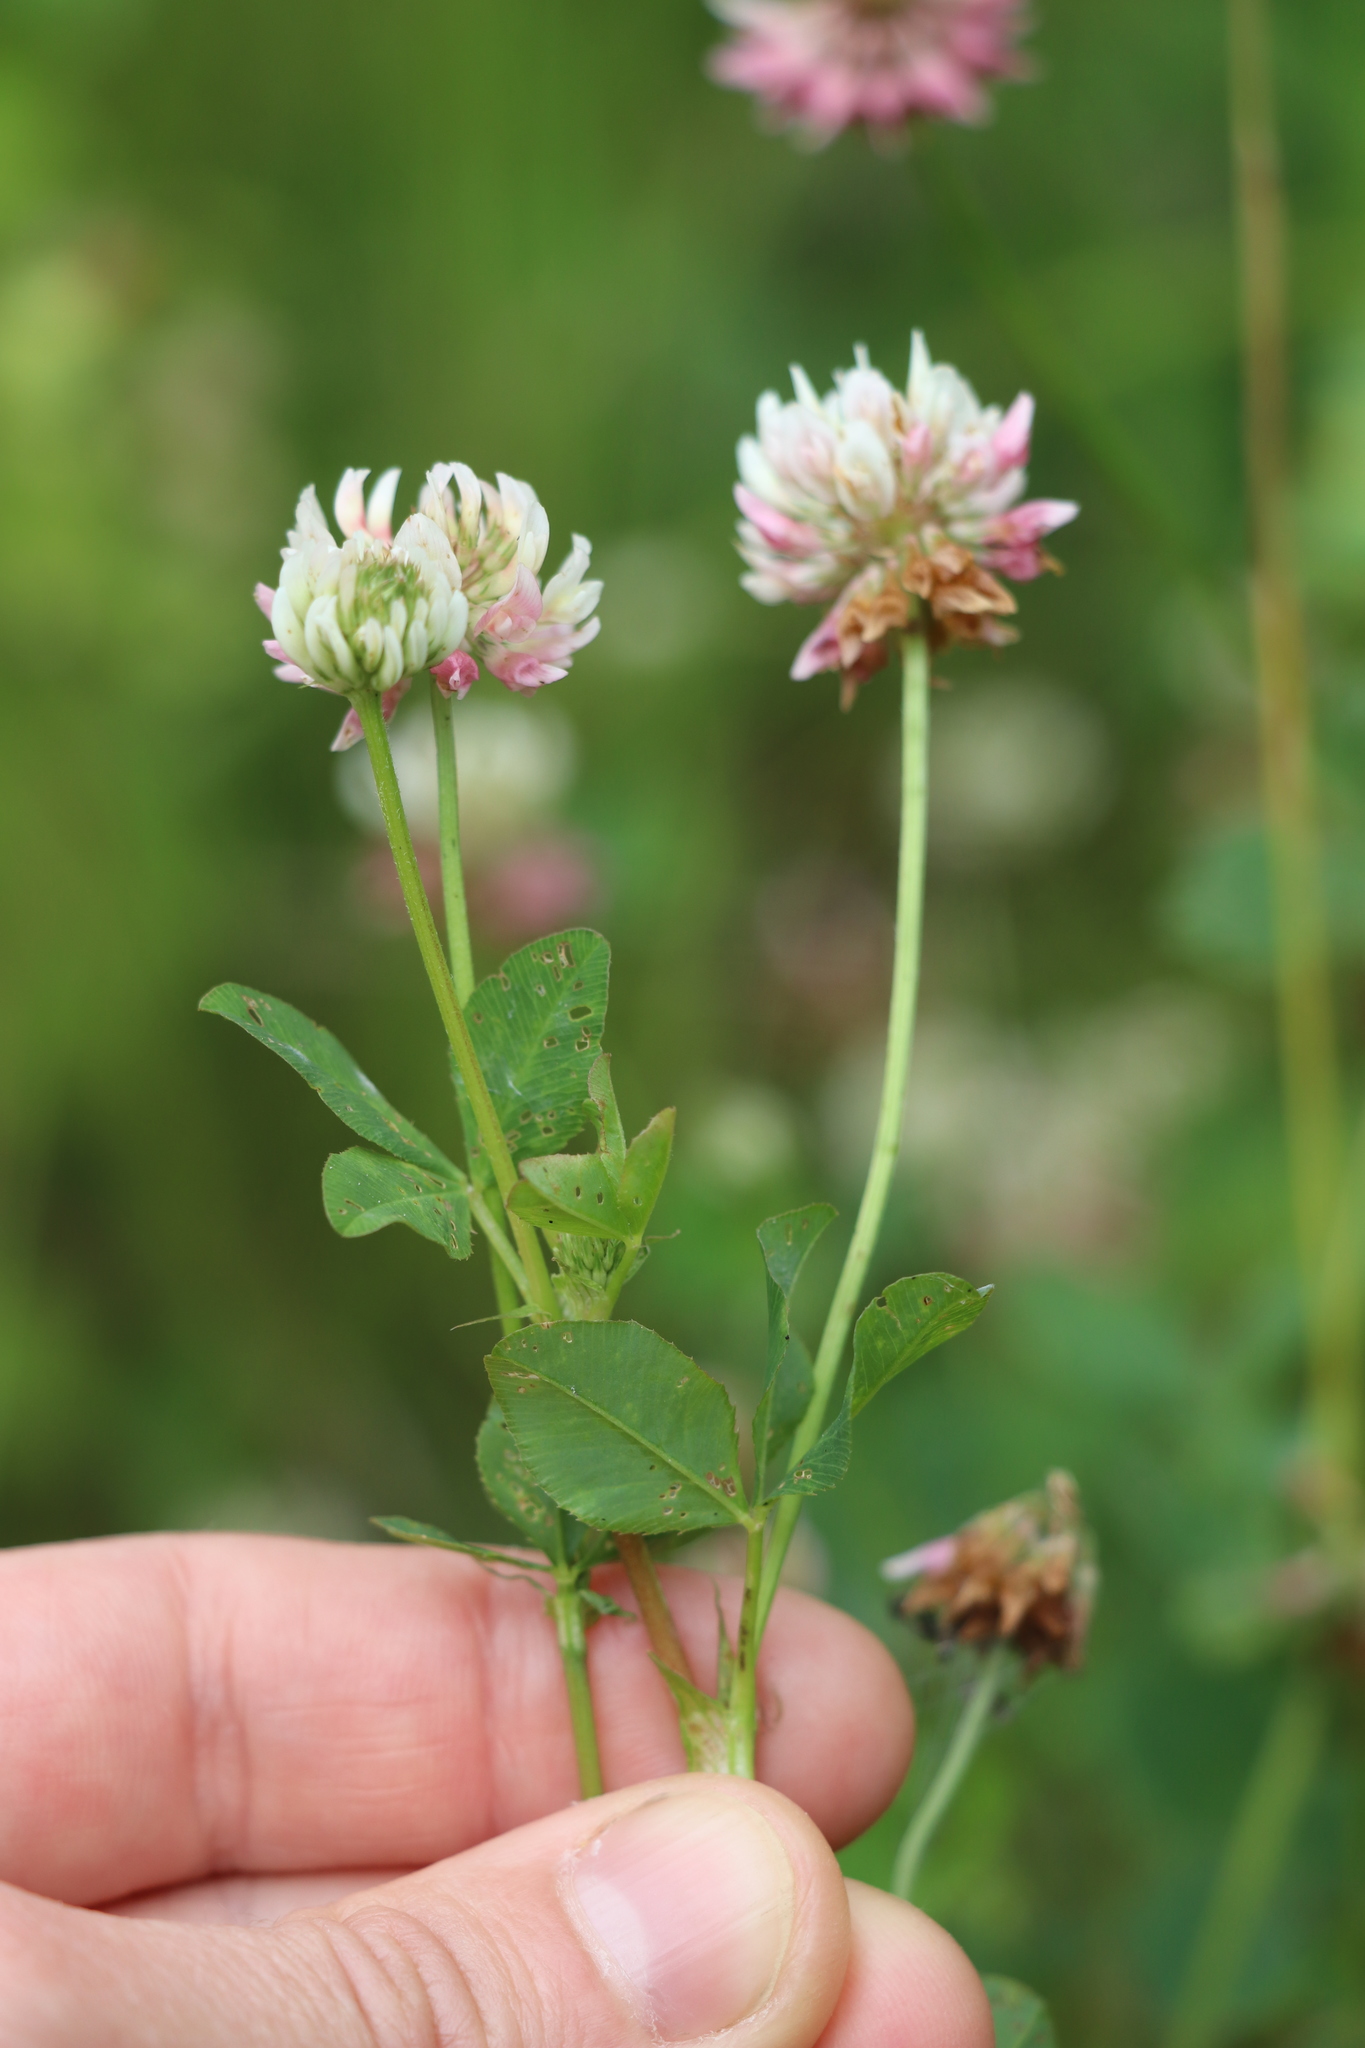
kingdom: Plantae
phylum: Tracheophyta
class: Magnoliopsida
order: Fabales
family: Fabaceae
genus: Trifolium
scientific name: Trifolium hybridum
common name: Alsike clover
